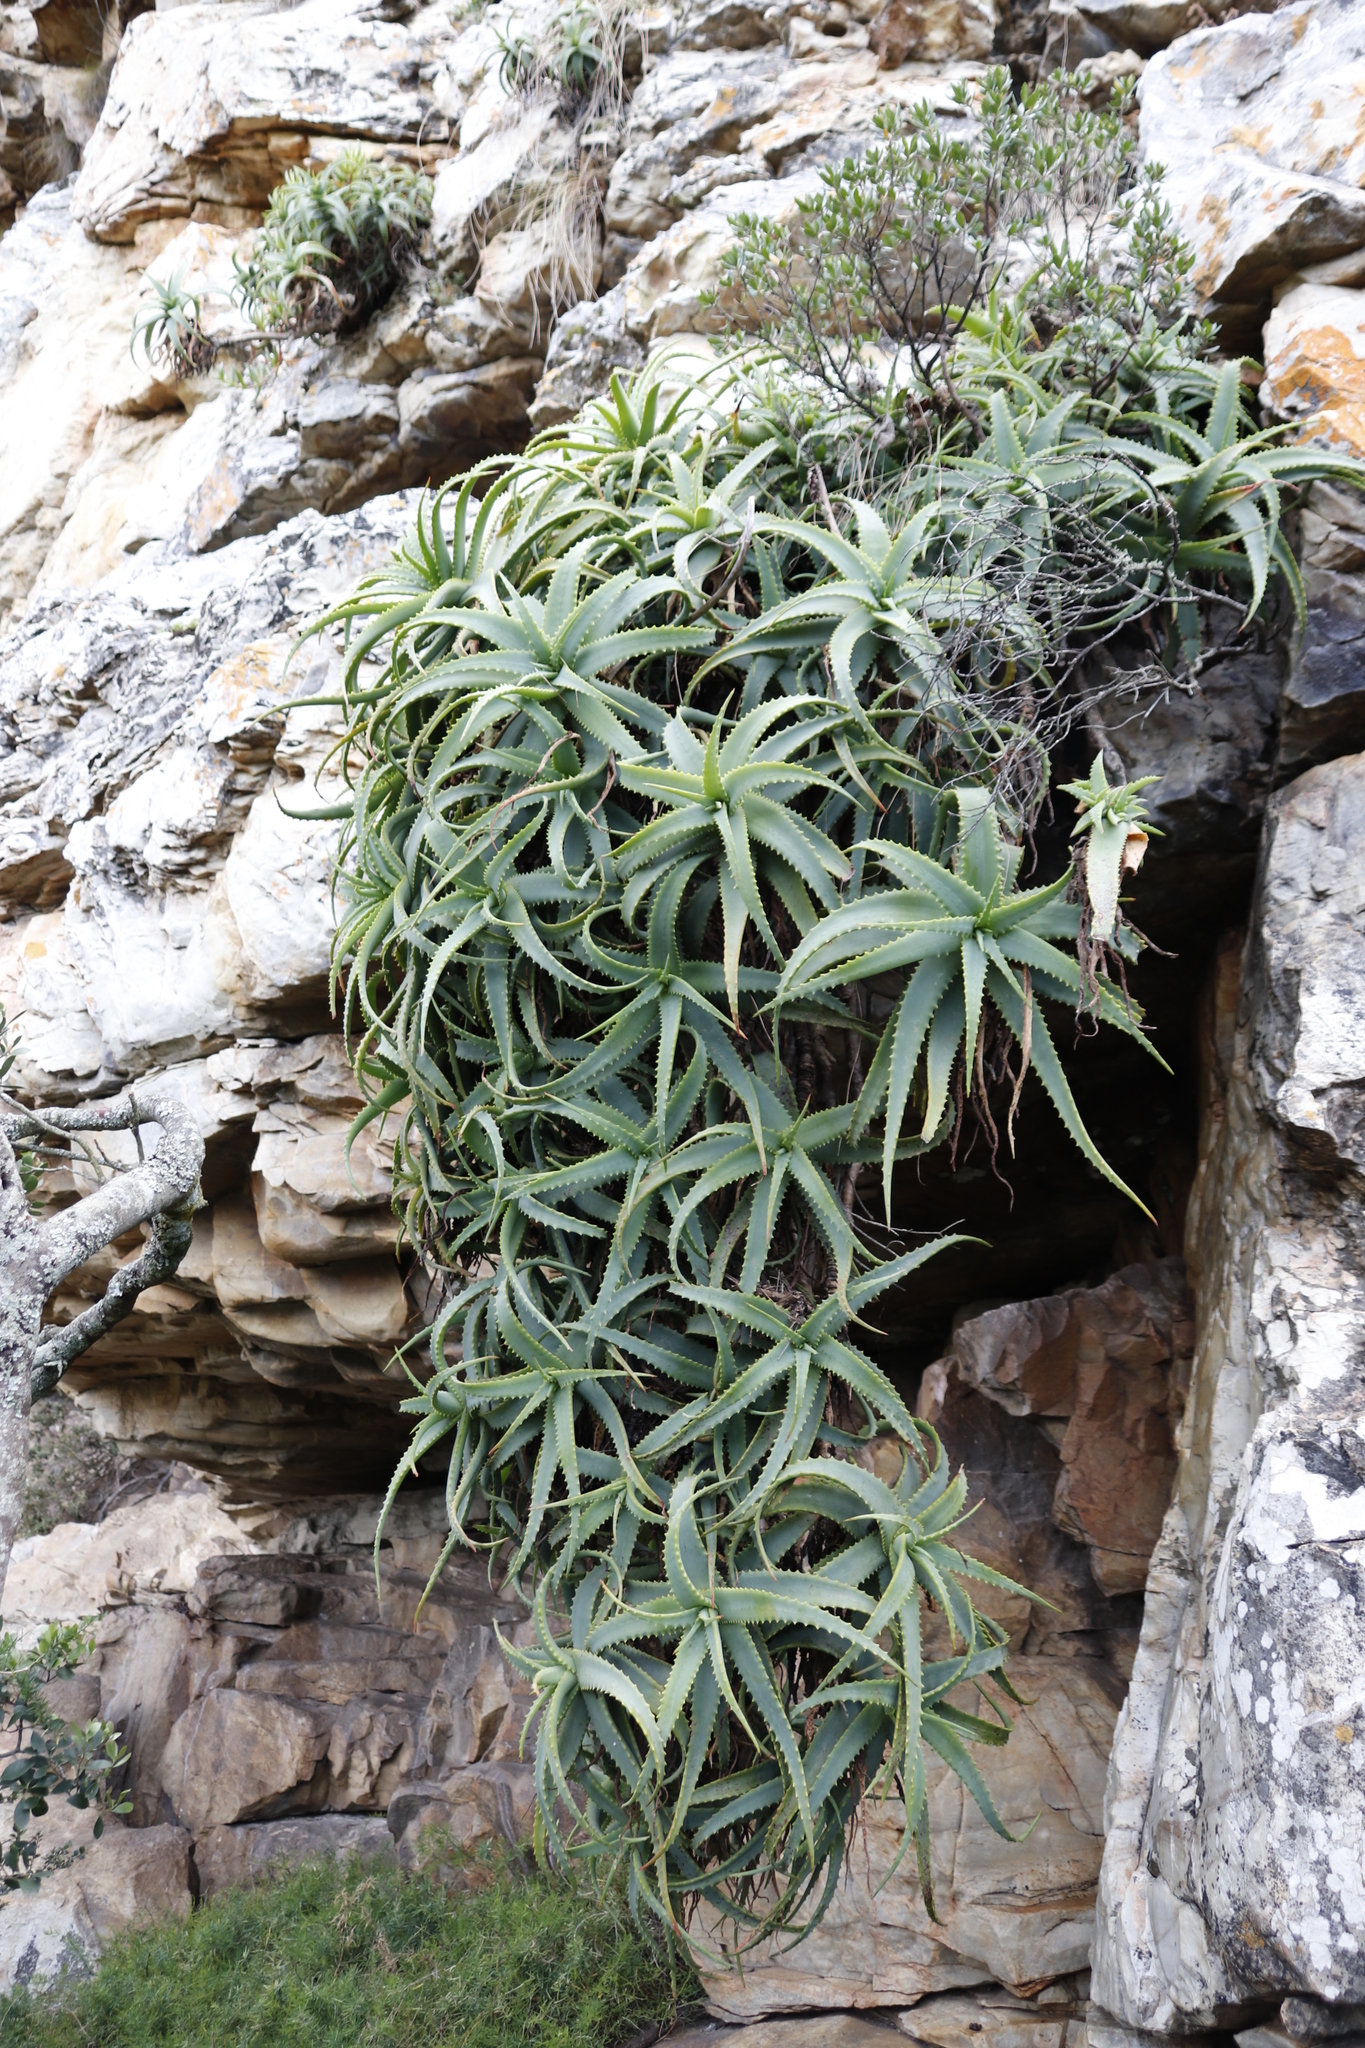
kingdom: Plantae
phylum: Tracheophyta
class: Liliopsida
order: Asparagales
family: Asphodelaceae
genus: Aloe
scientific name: Aloe arborescens
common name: Candelabra aloe
